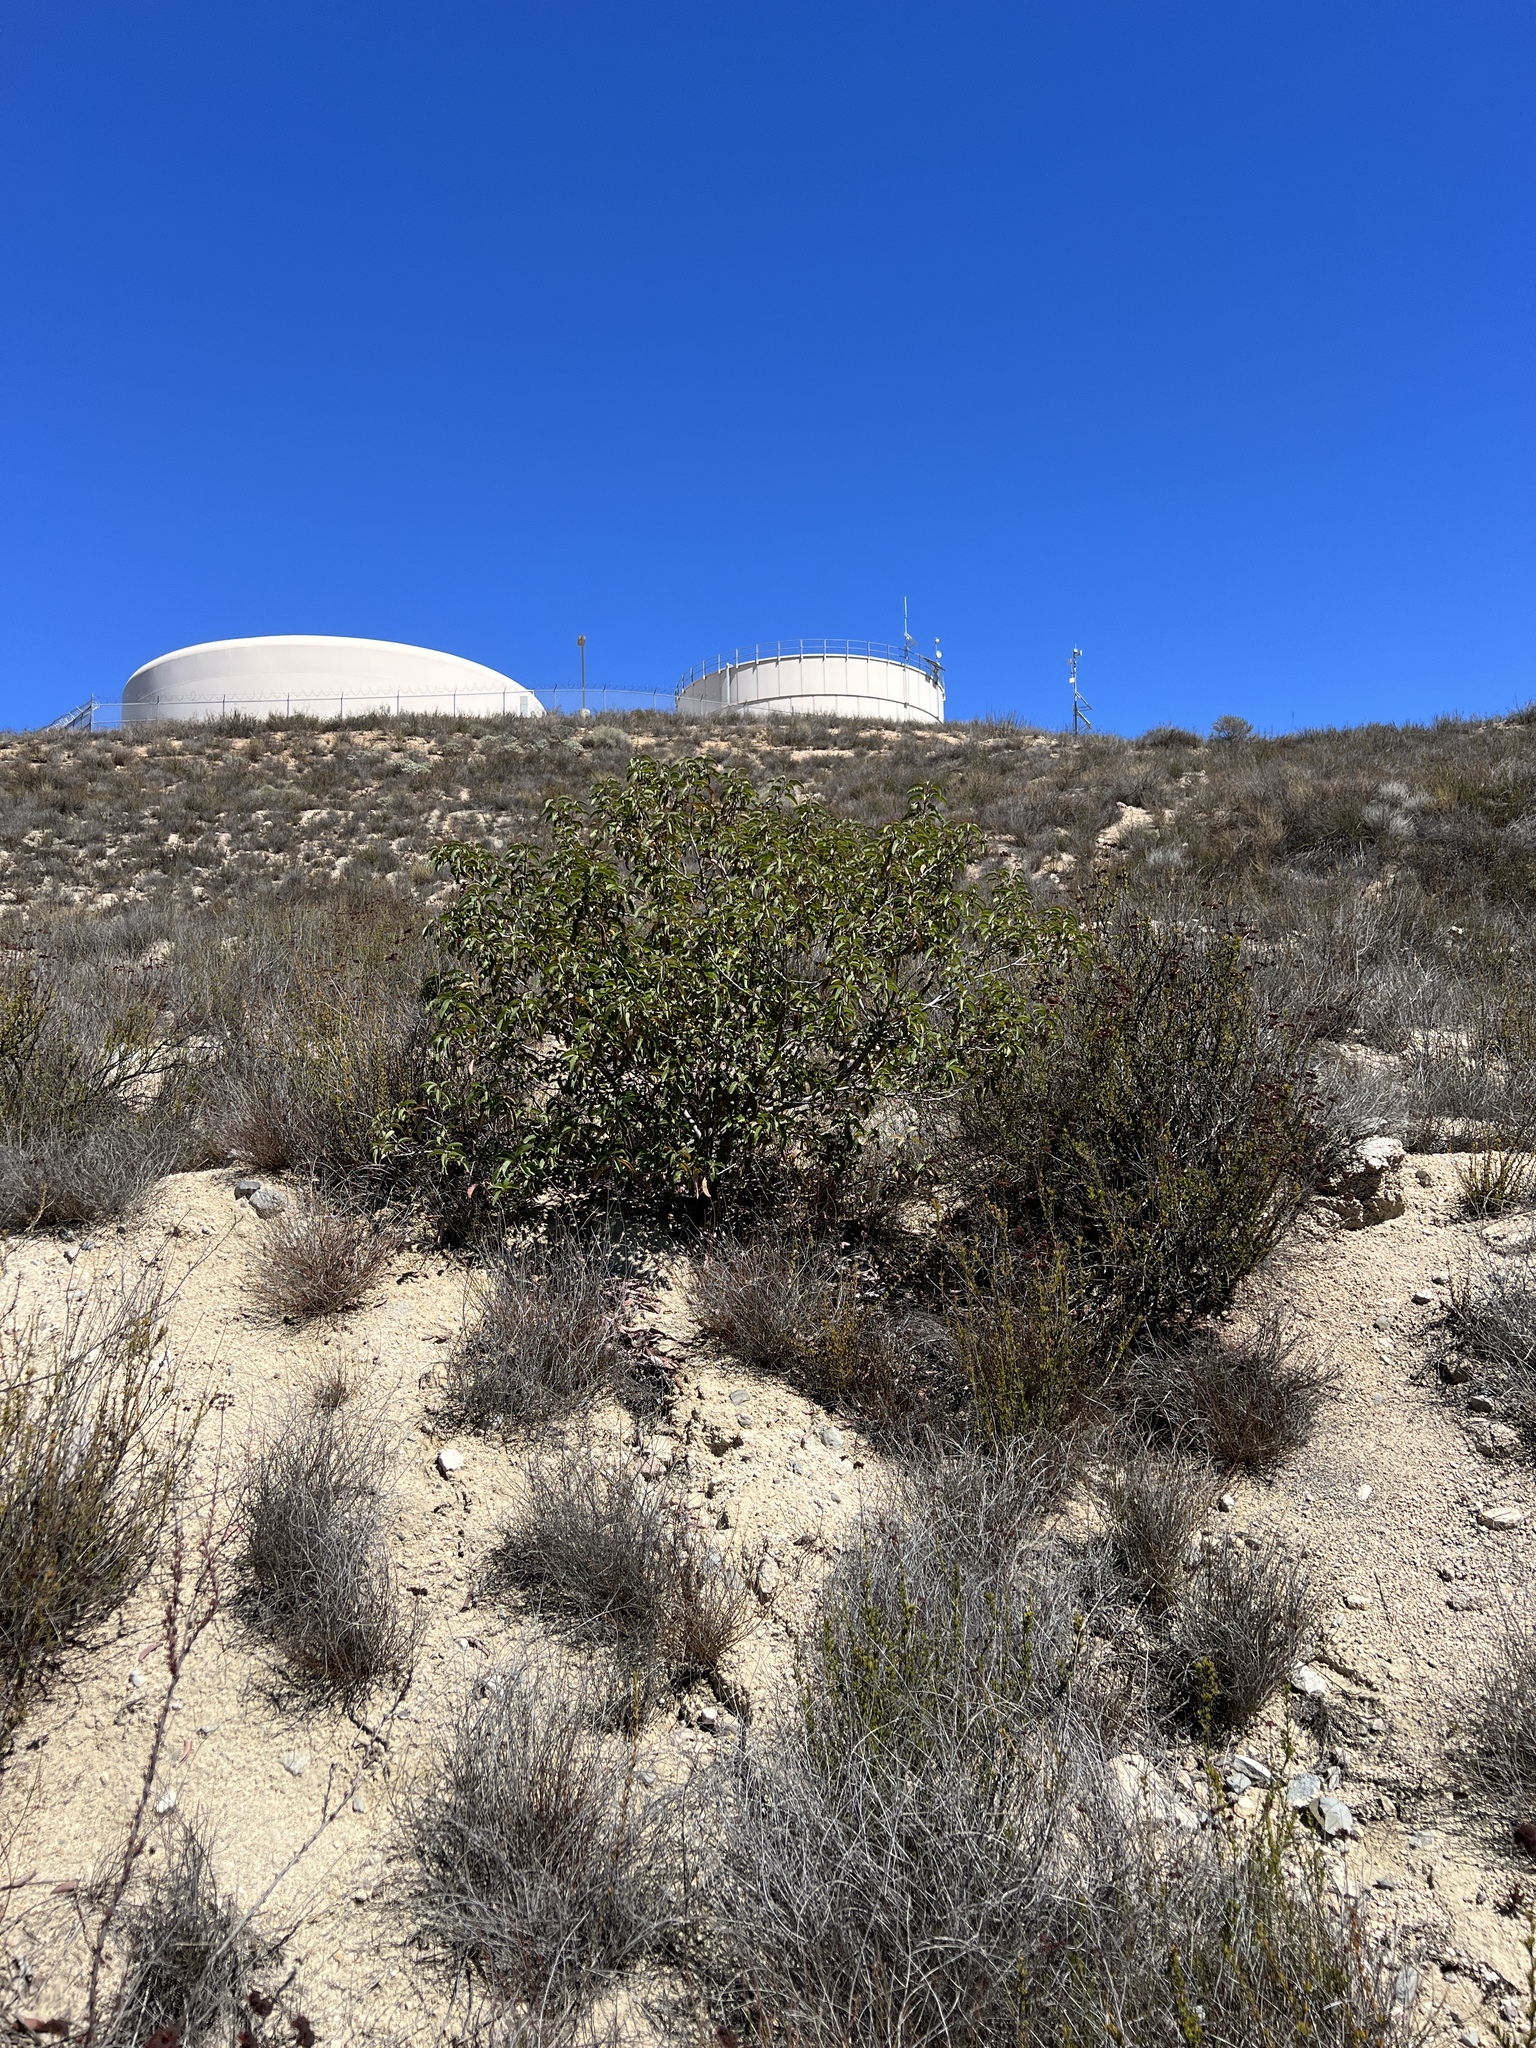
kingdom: Plantae
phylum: Tracheophyta
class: Magnoliopsida
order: Sapindales
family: Anacardiaceae
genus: Malosma
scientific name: Malosma laurina
